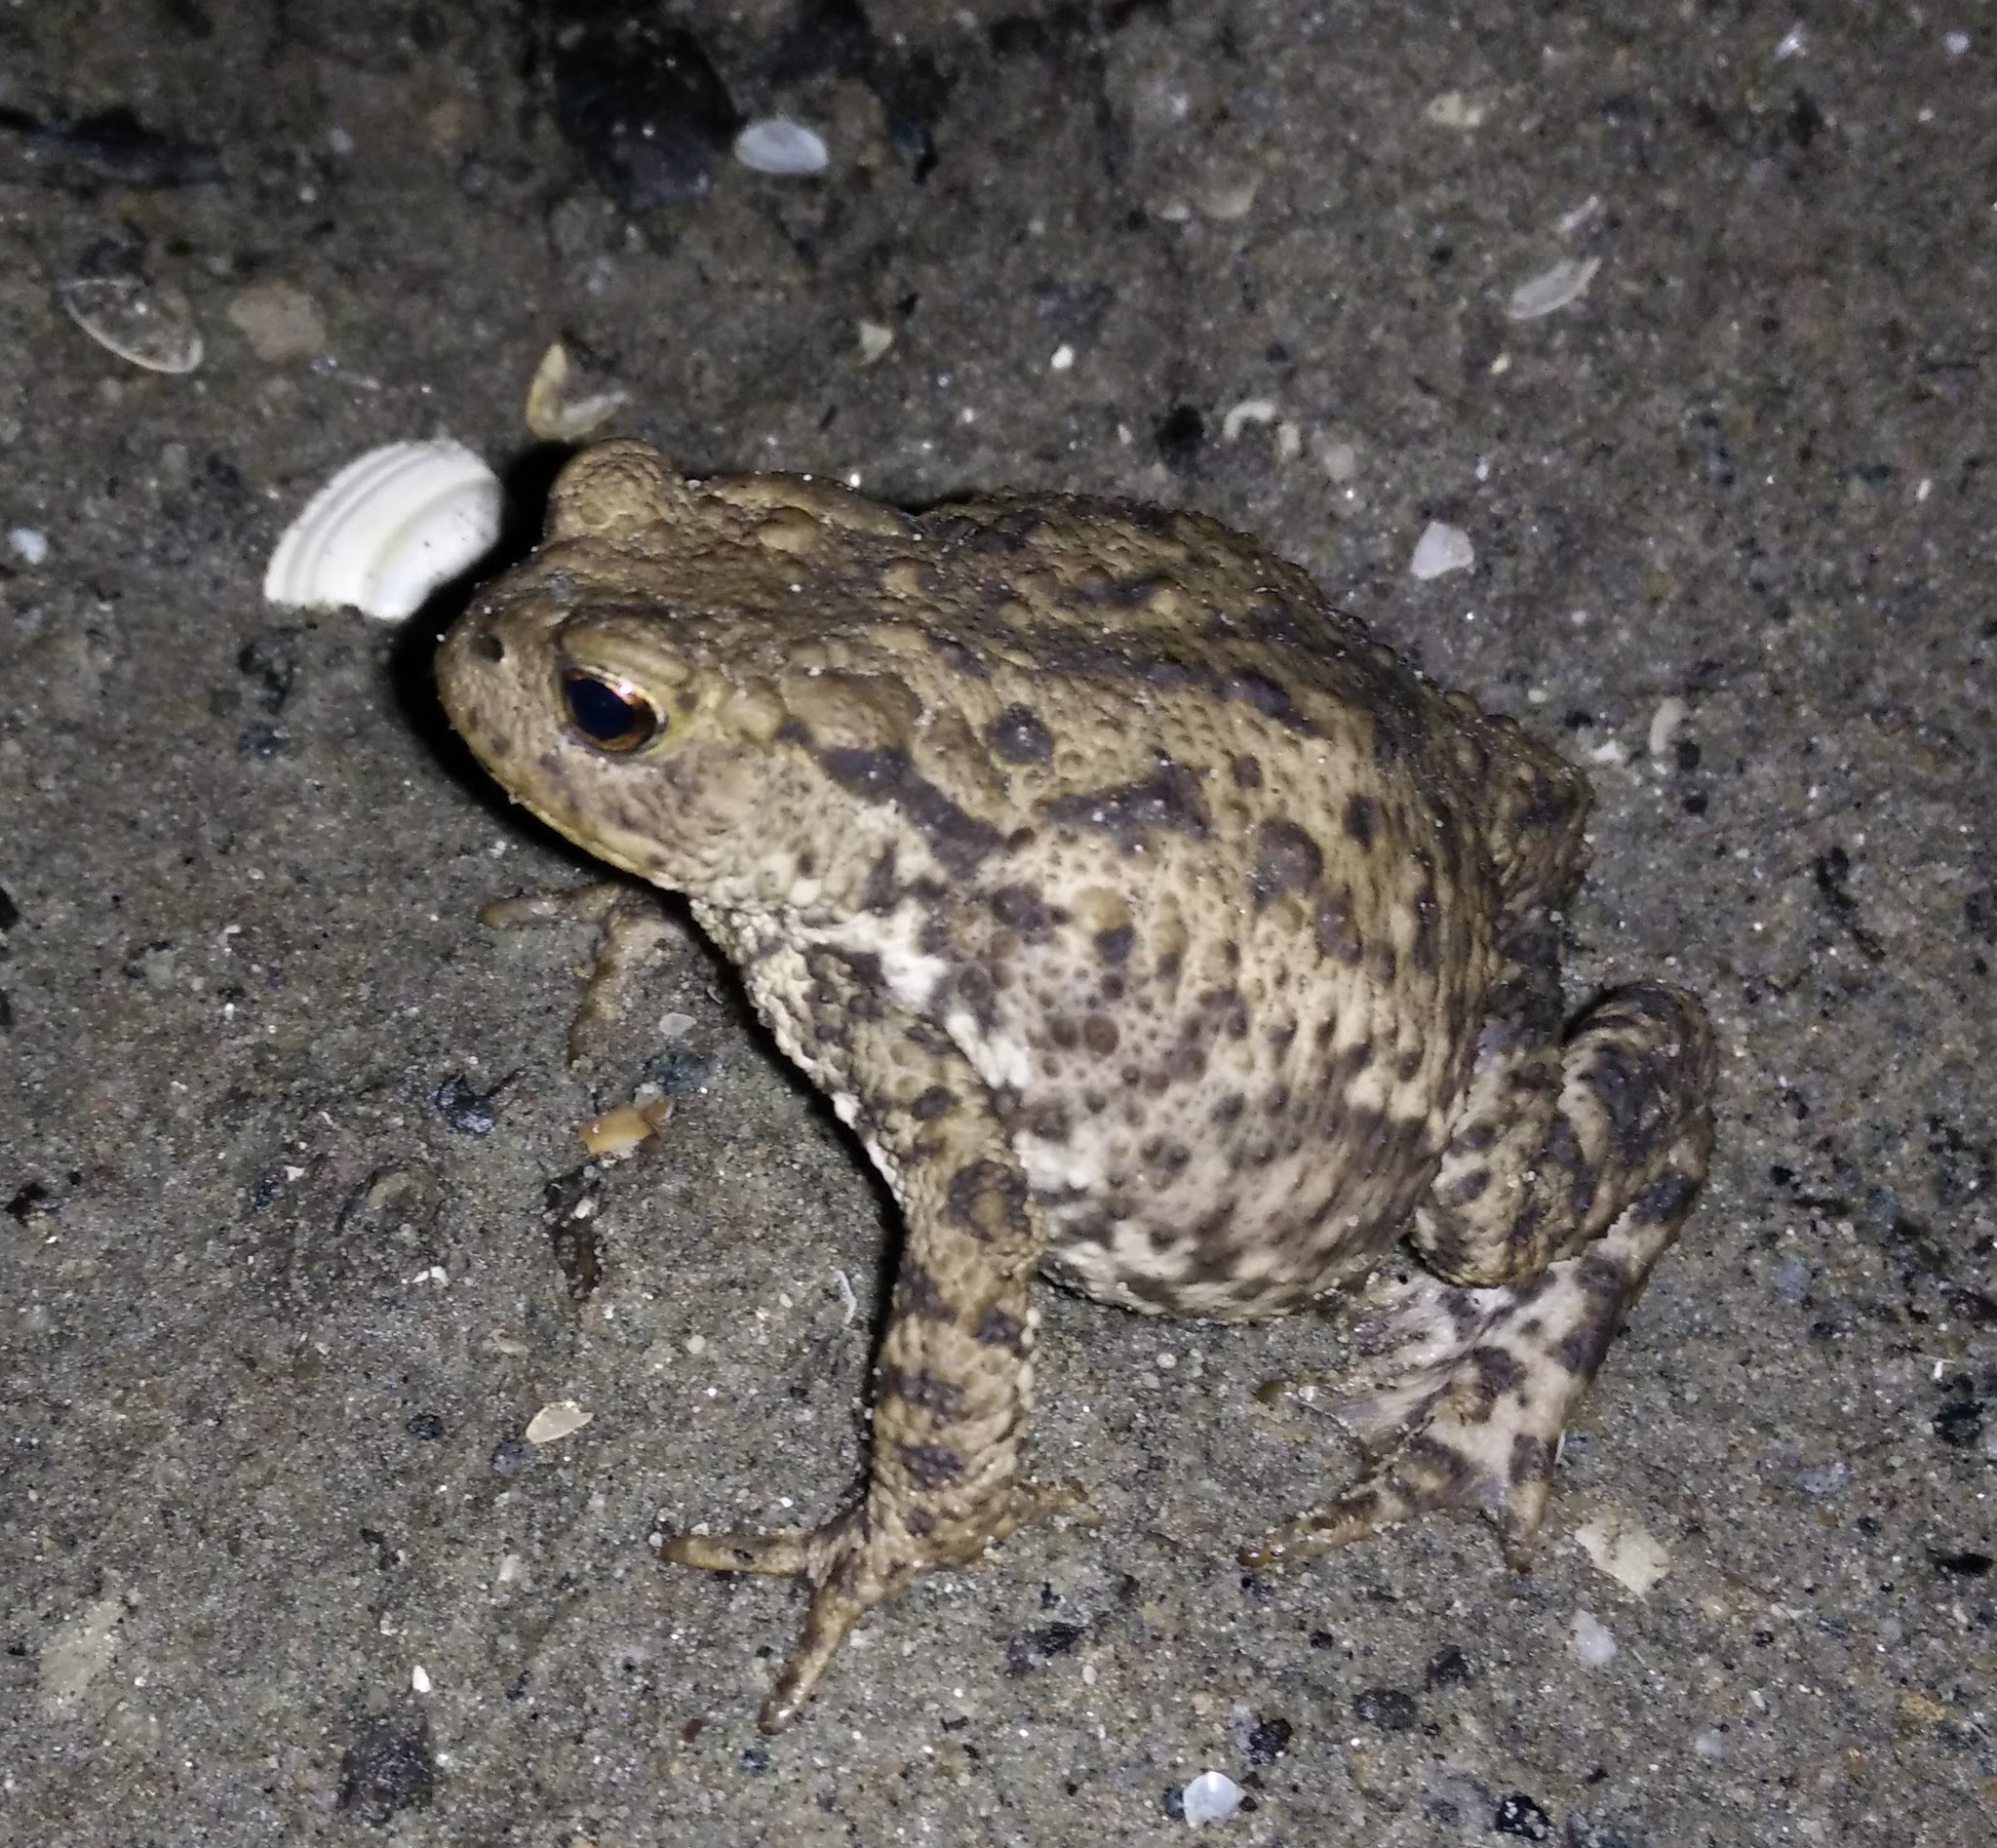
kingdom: Animalia
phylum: Chordata
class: Amphibia
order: Anura
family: Bufonidae
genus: Bufo
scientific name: Bufo bufo
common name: Common toad
